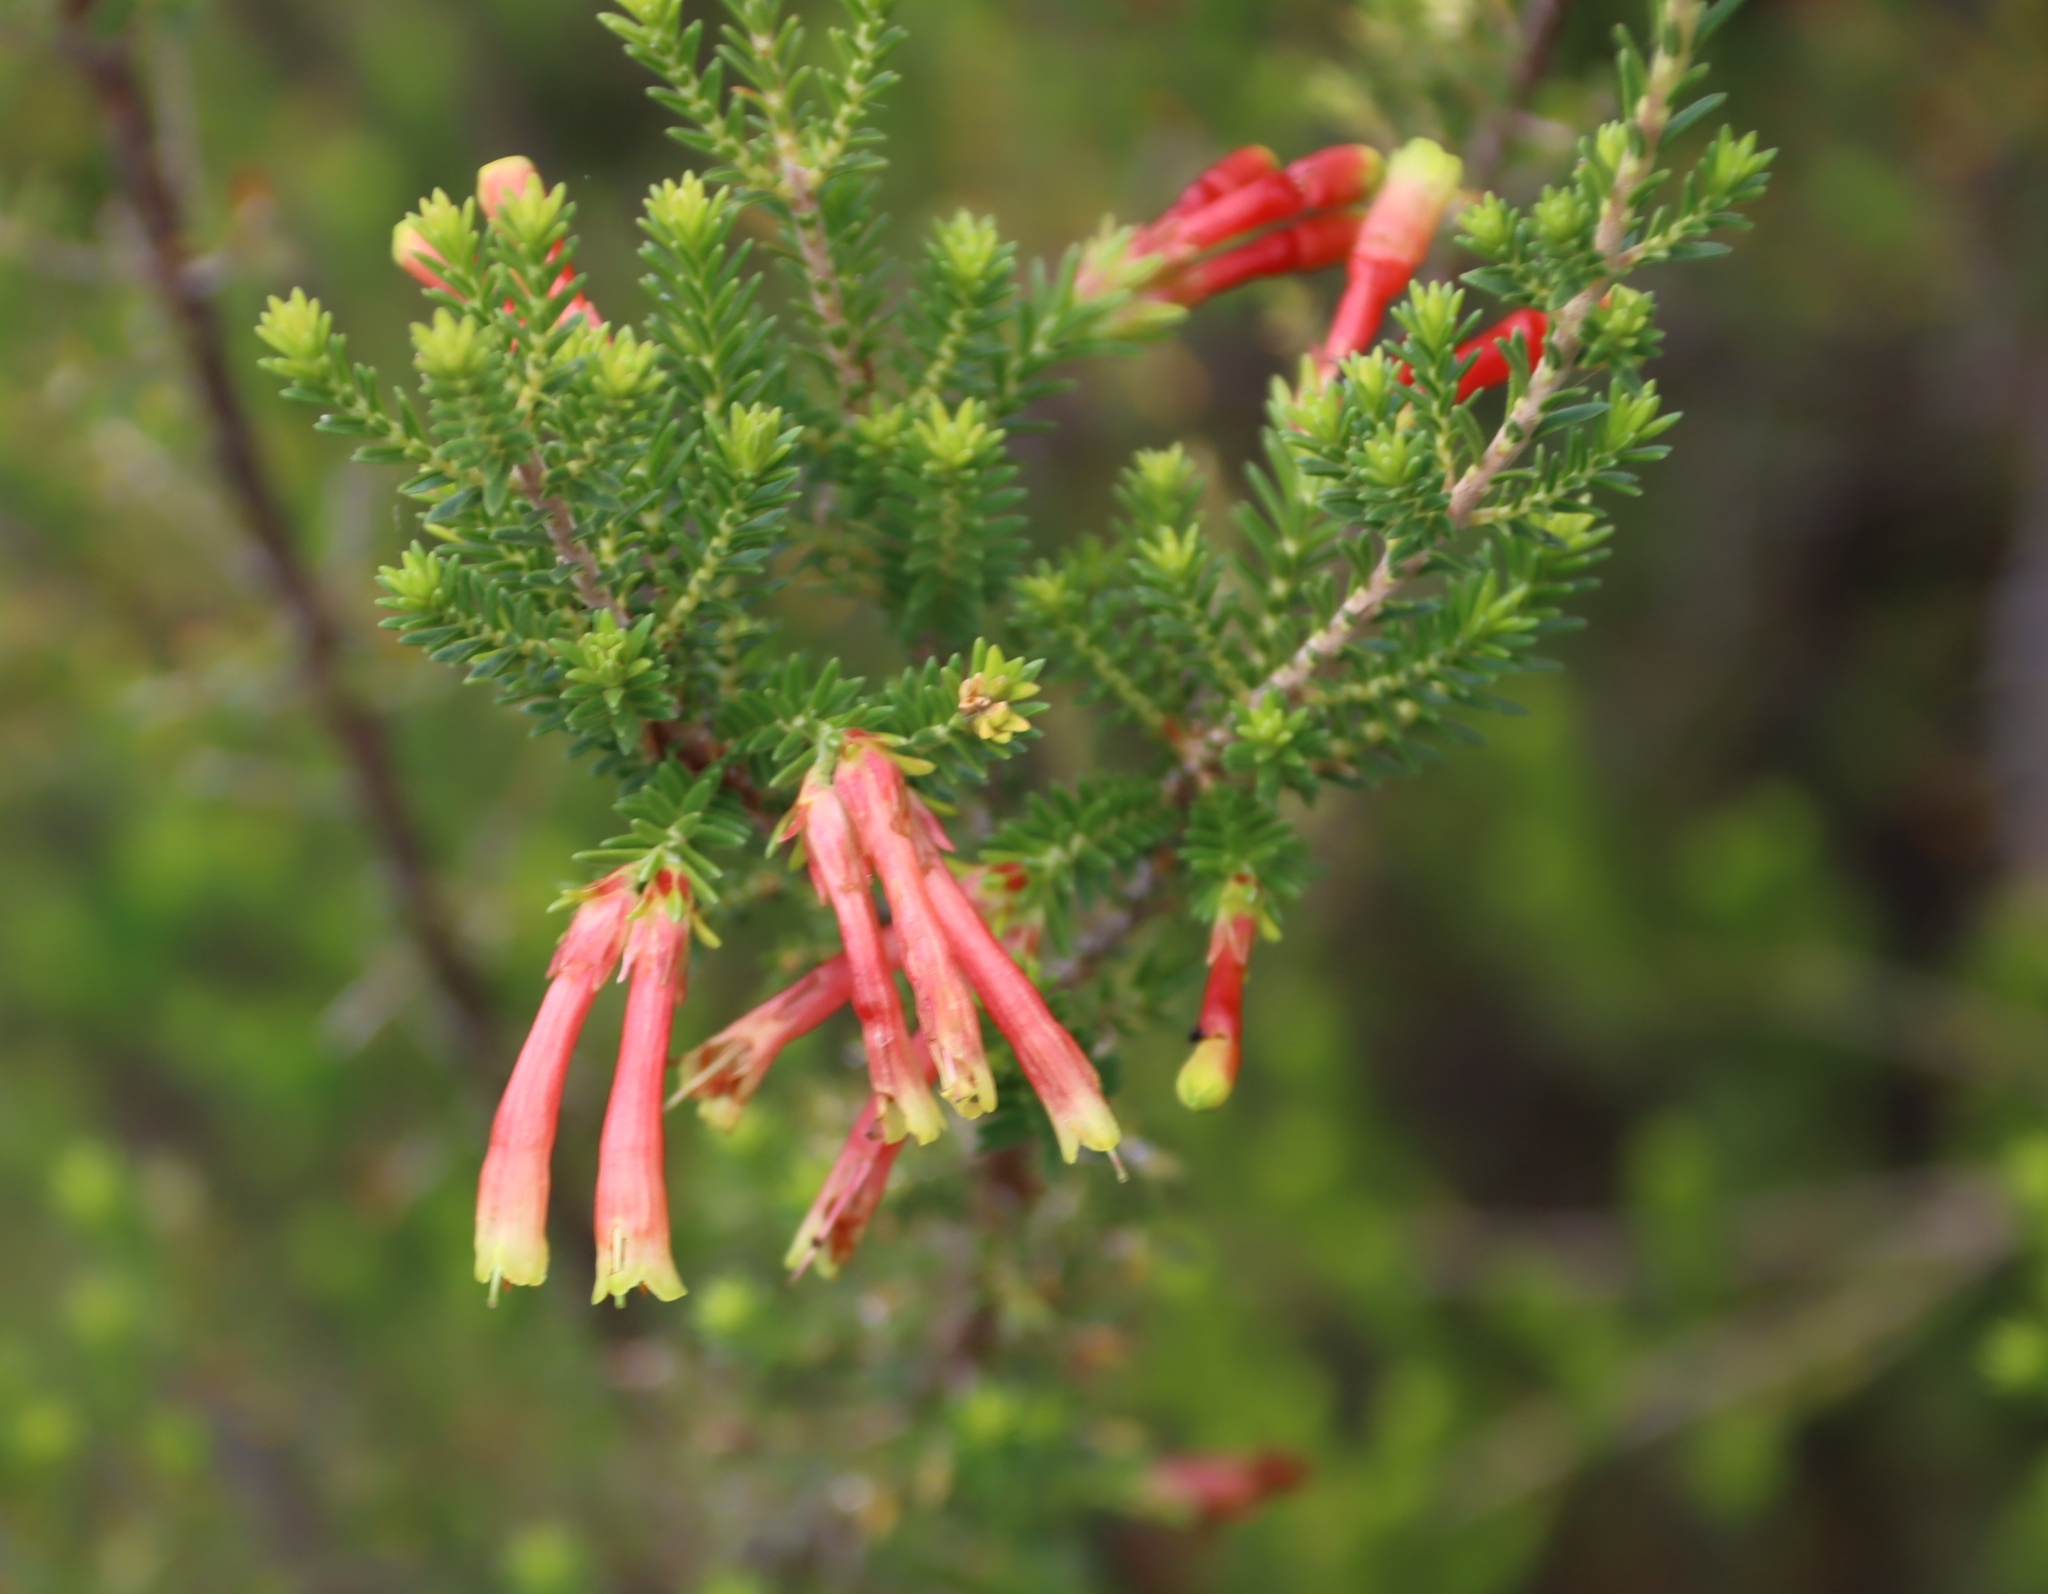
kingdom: Plantae
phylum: Tracheophyta
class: Magnoliopsida
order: Ericales
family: Ericaceae
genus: Erica
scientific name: Erica versicolor
